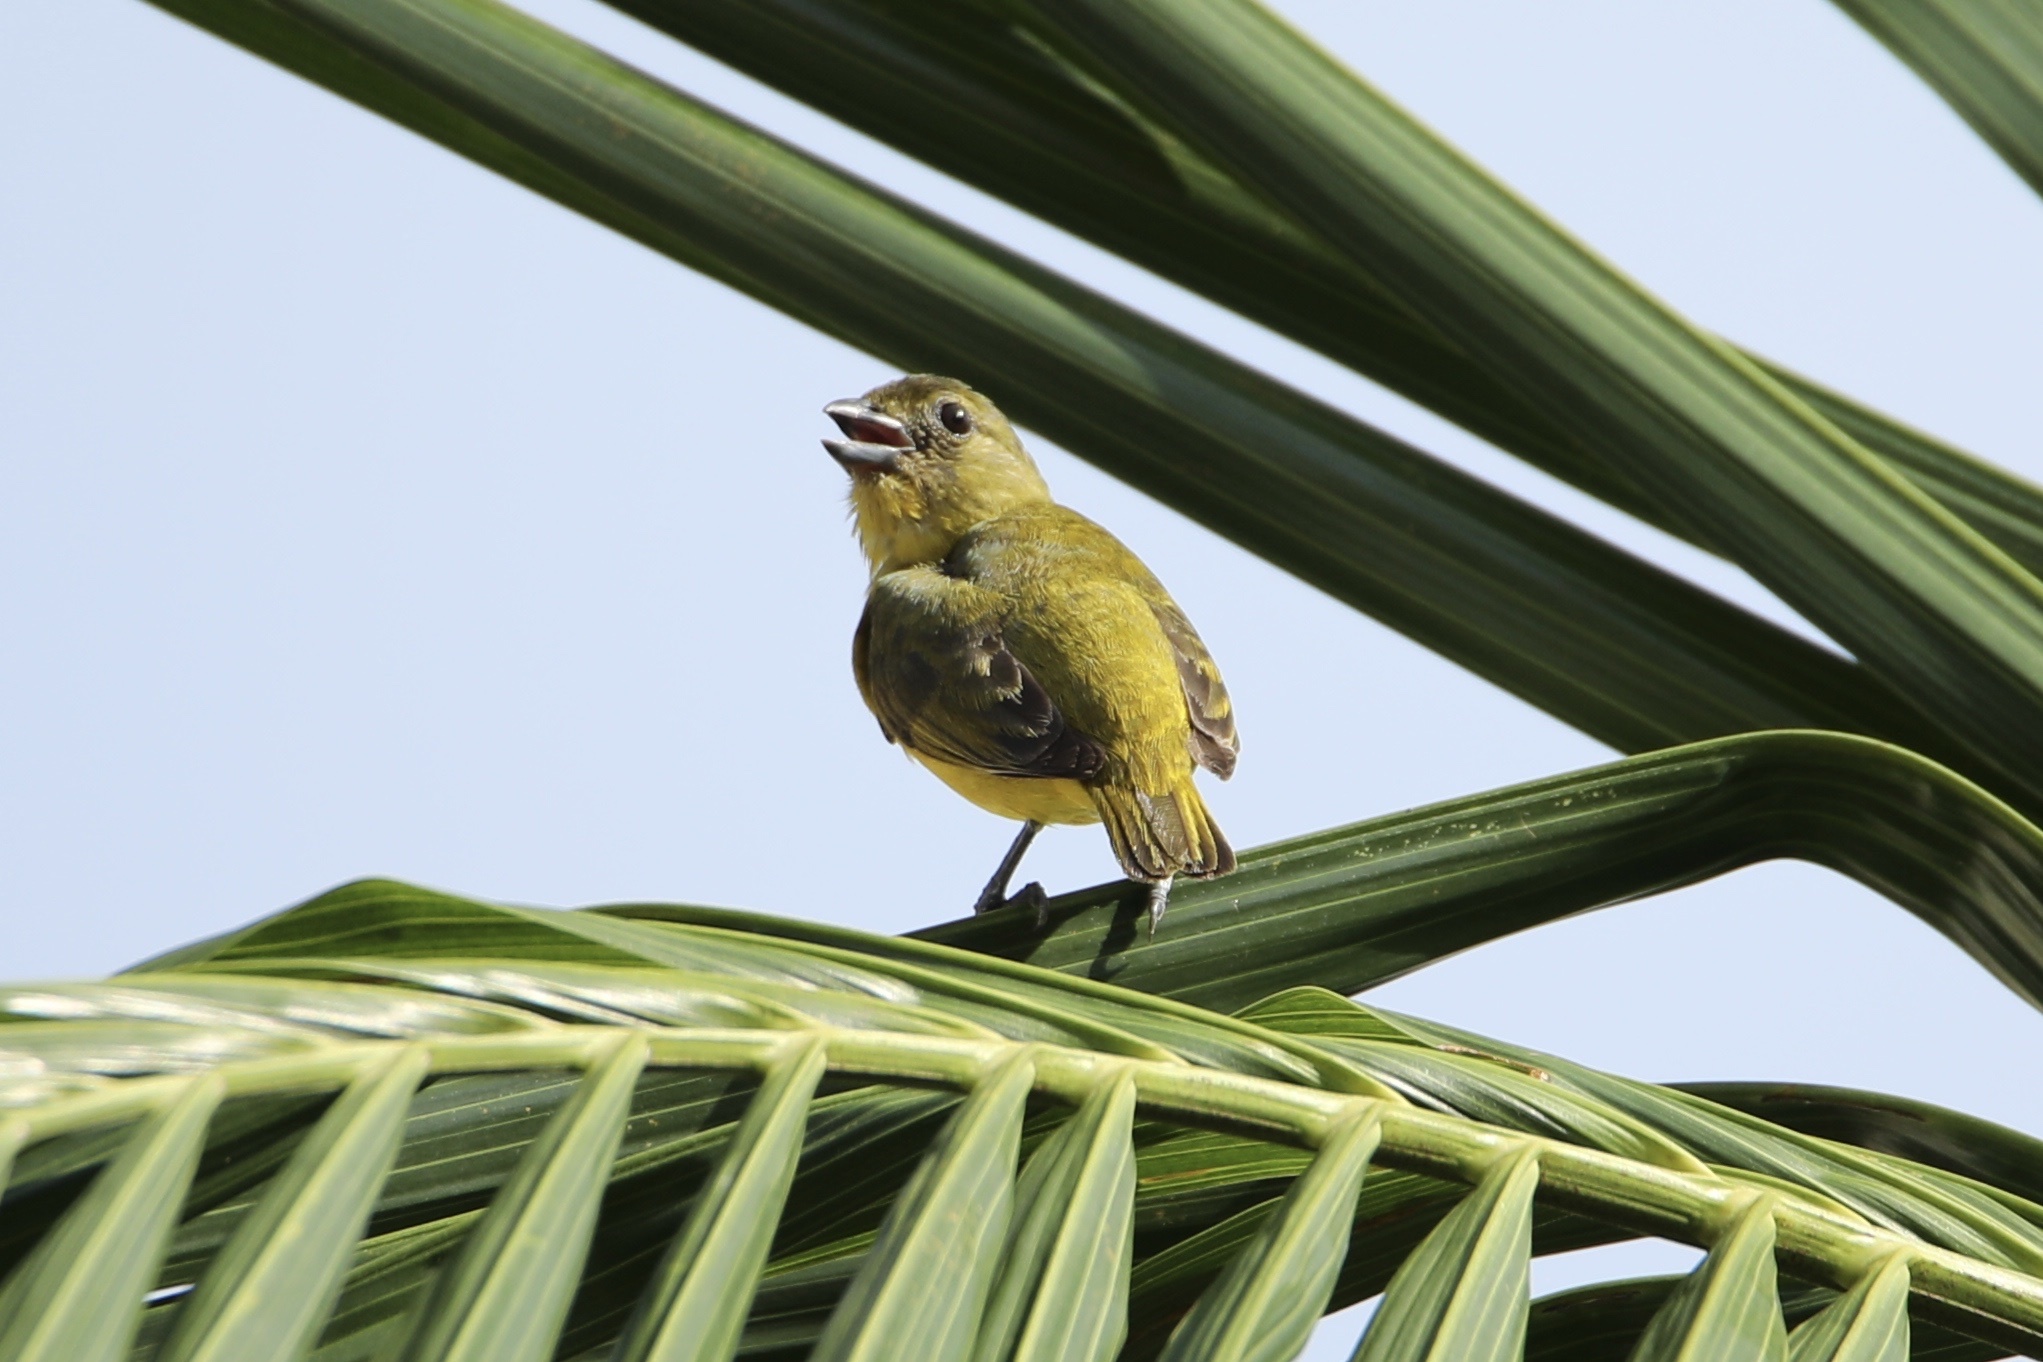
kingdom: Animalia
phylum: Chordata
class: Aves
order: Passeriformes
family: Fringillidae
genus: Euphonia
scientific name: Euphonia laniirostris
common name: Thick-billed euphonia
